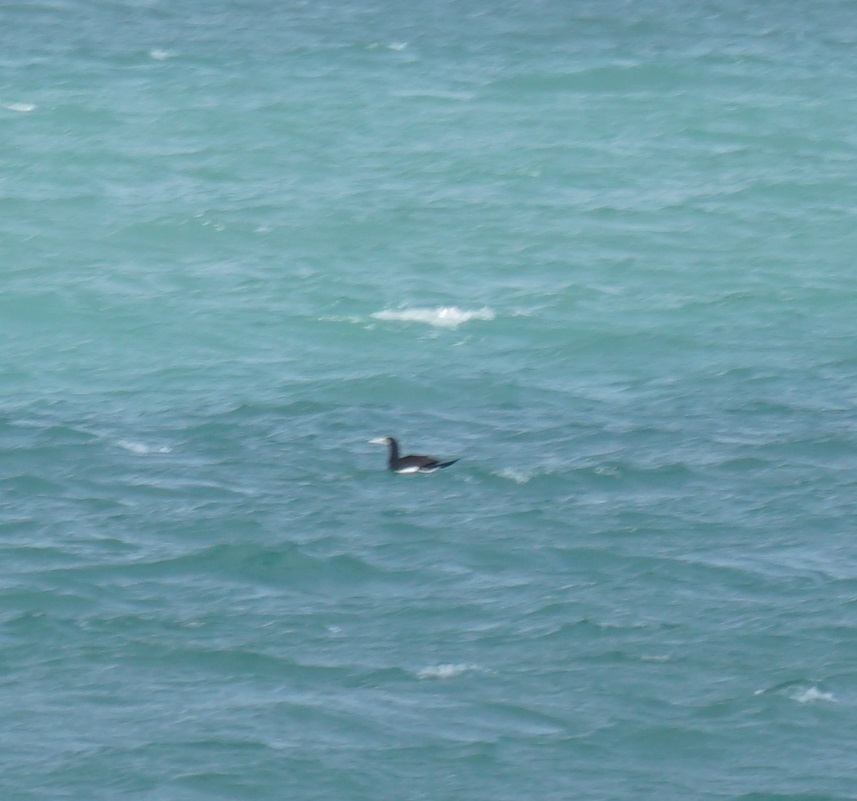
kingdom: Animalia
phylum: Chordata
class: Aves
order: Suliformes
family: Sulidae
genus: Sula
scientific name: Sula leucogaster
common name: Brown booby
